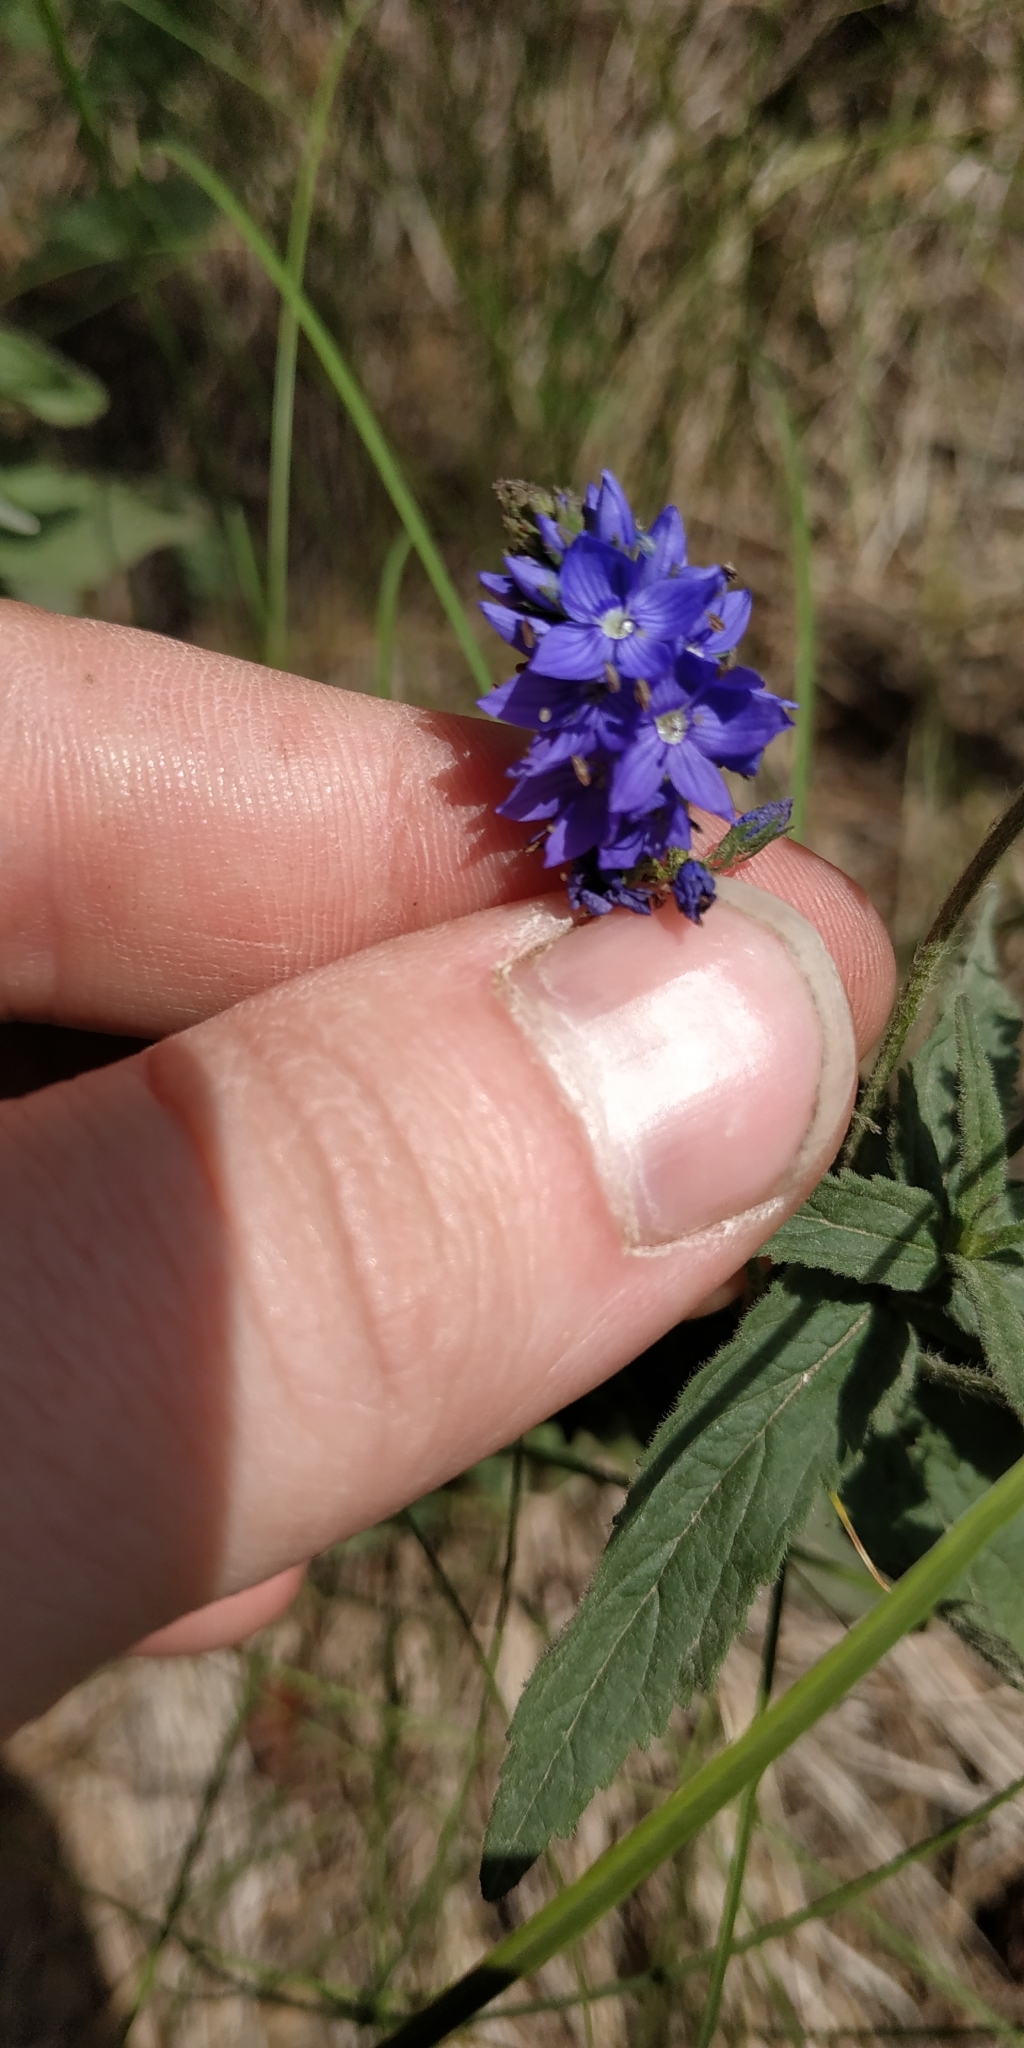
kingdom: Plantae
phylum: Tracheophyta
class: Magnoliopsida
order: Lamiales
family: Plantaginaceae
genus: Veronica
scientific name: Veronica teucrium
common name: Large speedwell
